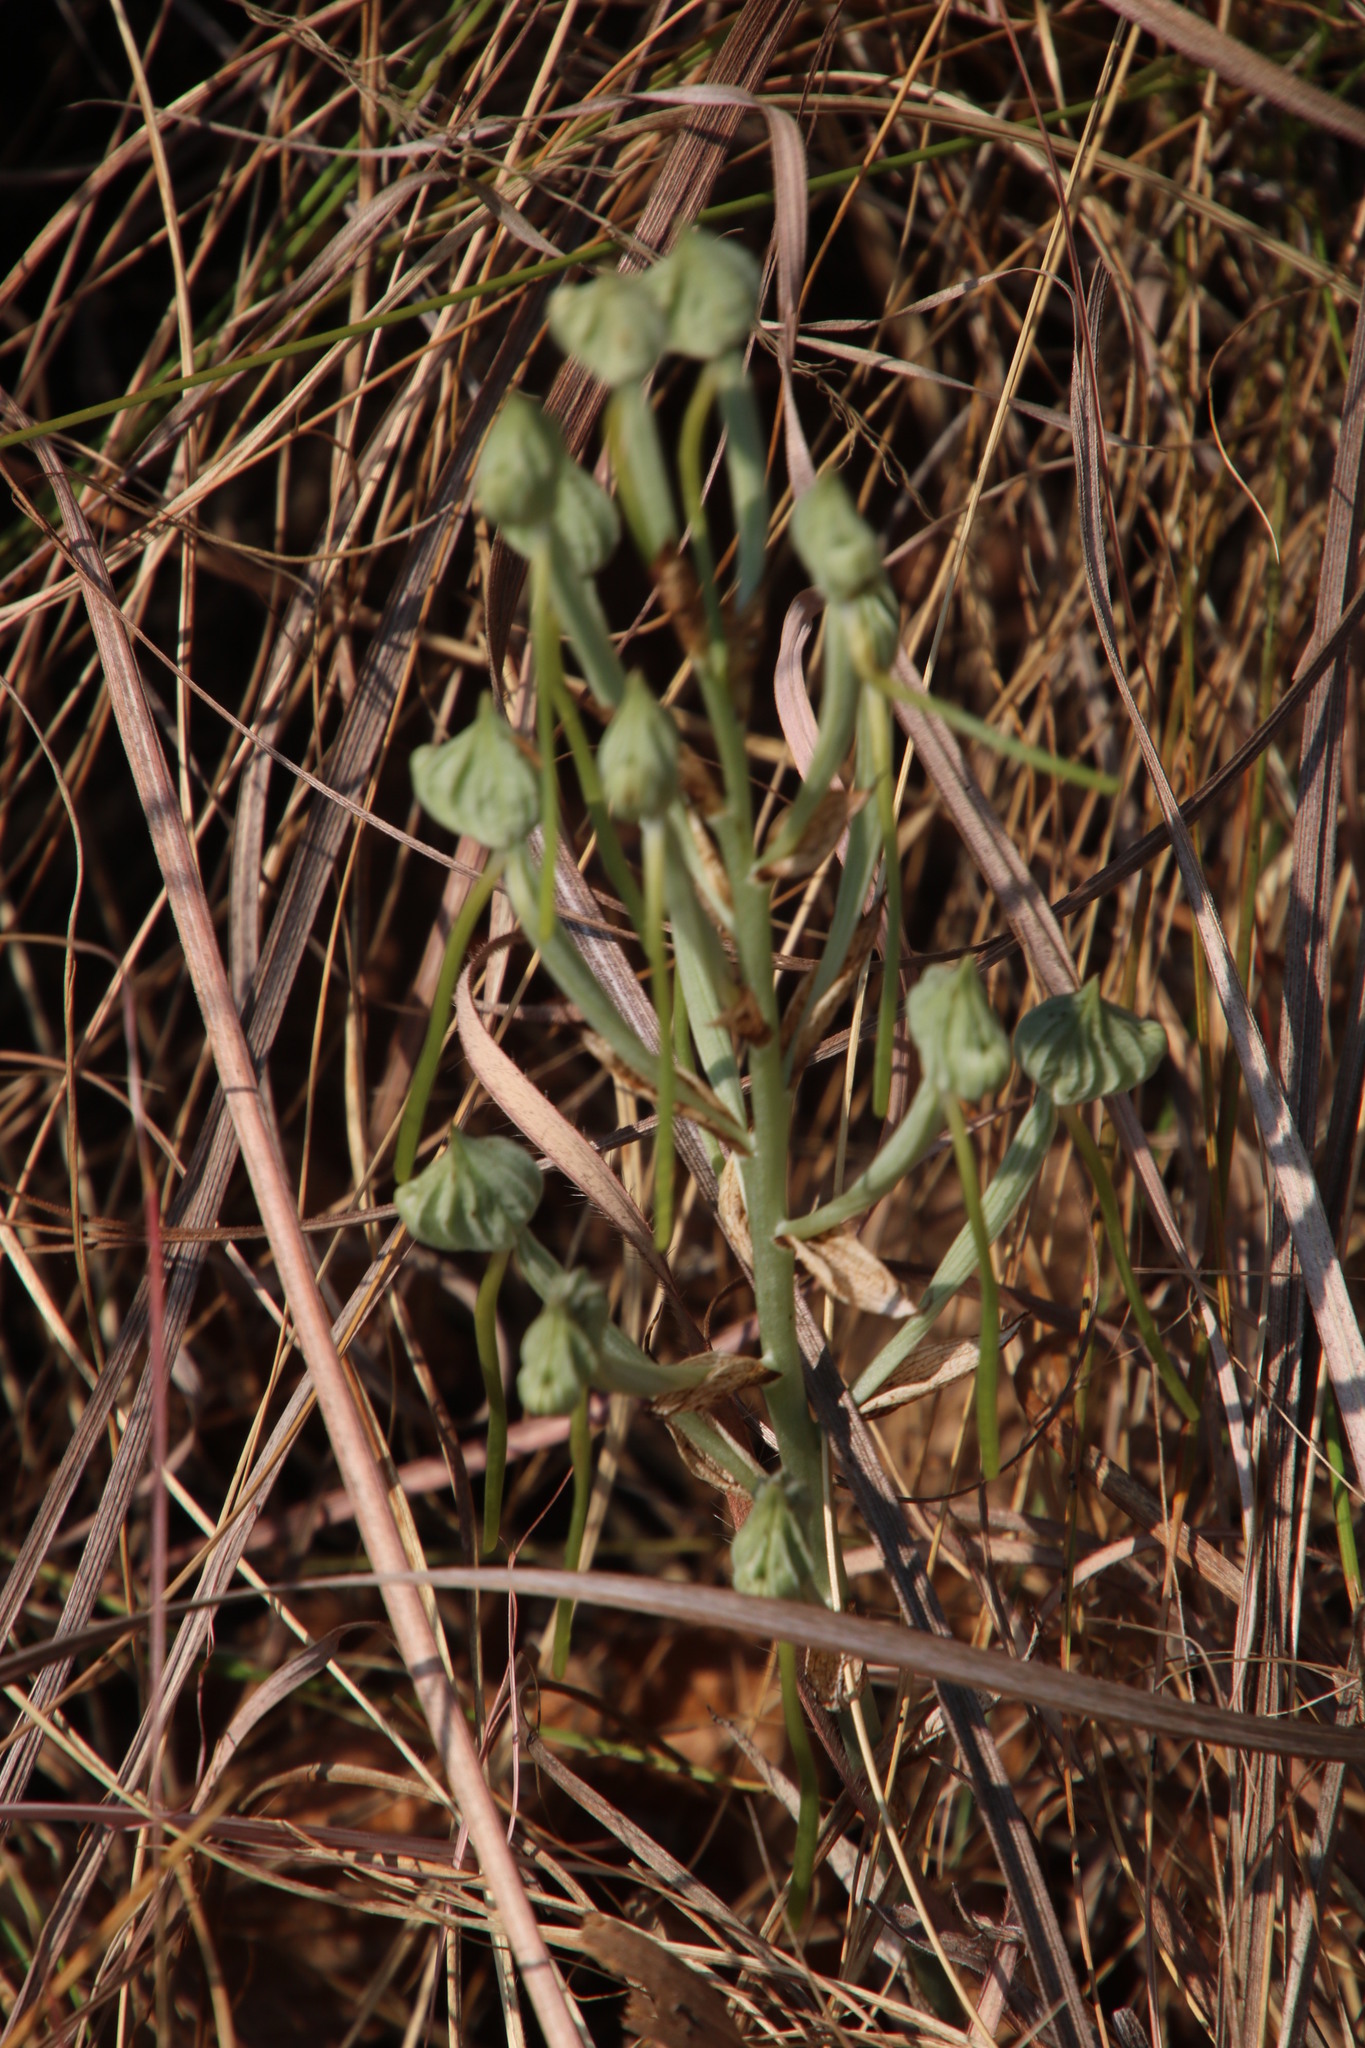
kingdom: Plantae
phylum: Tracheophyta
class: Liliopsida
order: Asparagales
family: Orchidaceae
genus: Bonatea
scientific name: Bonatea porrecta
